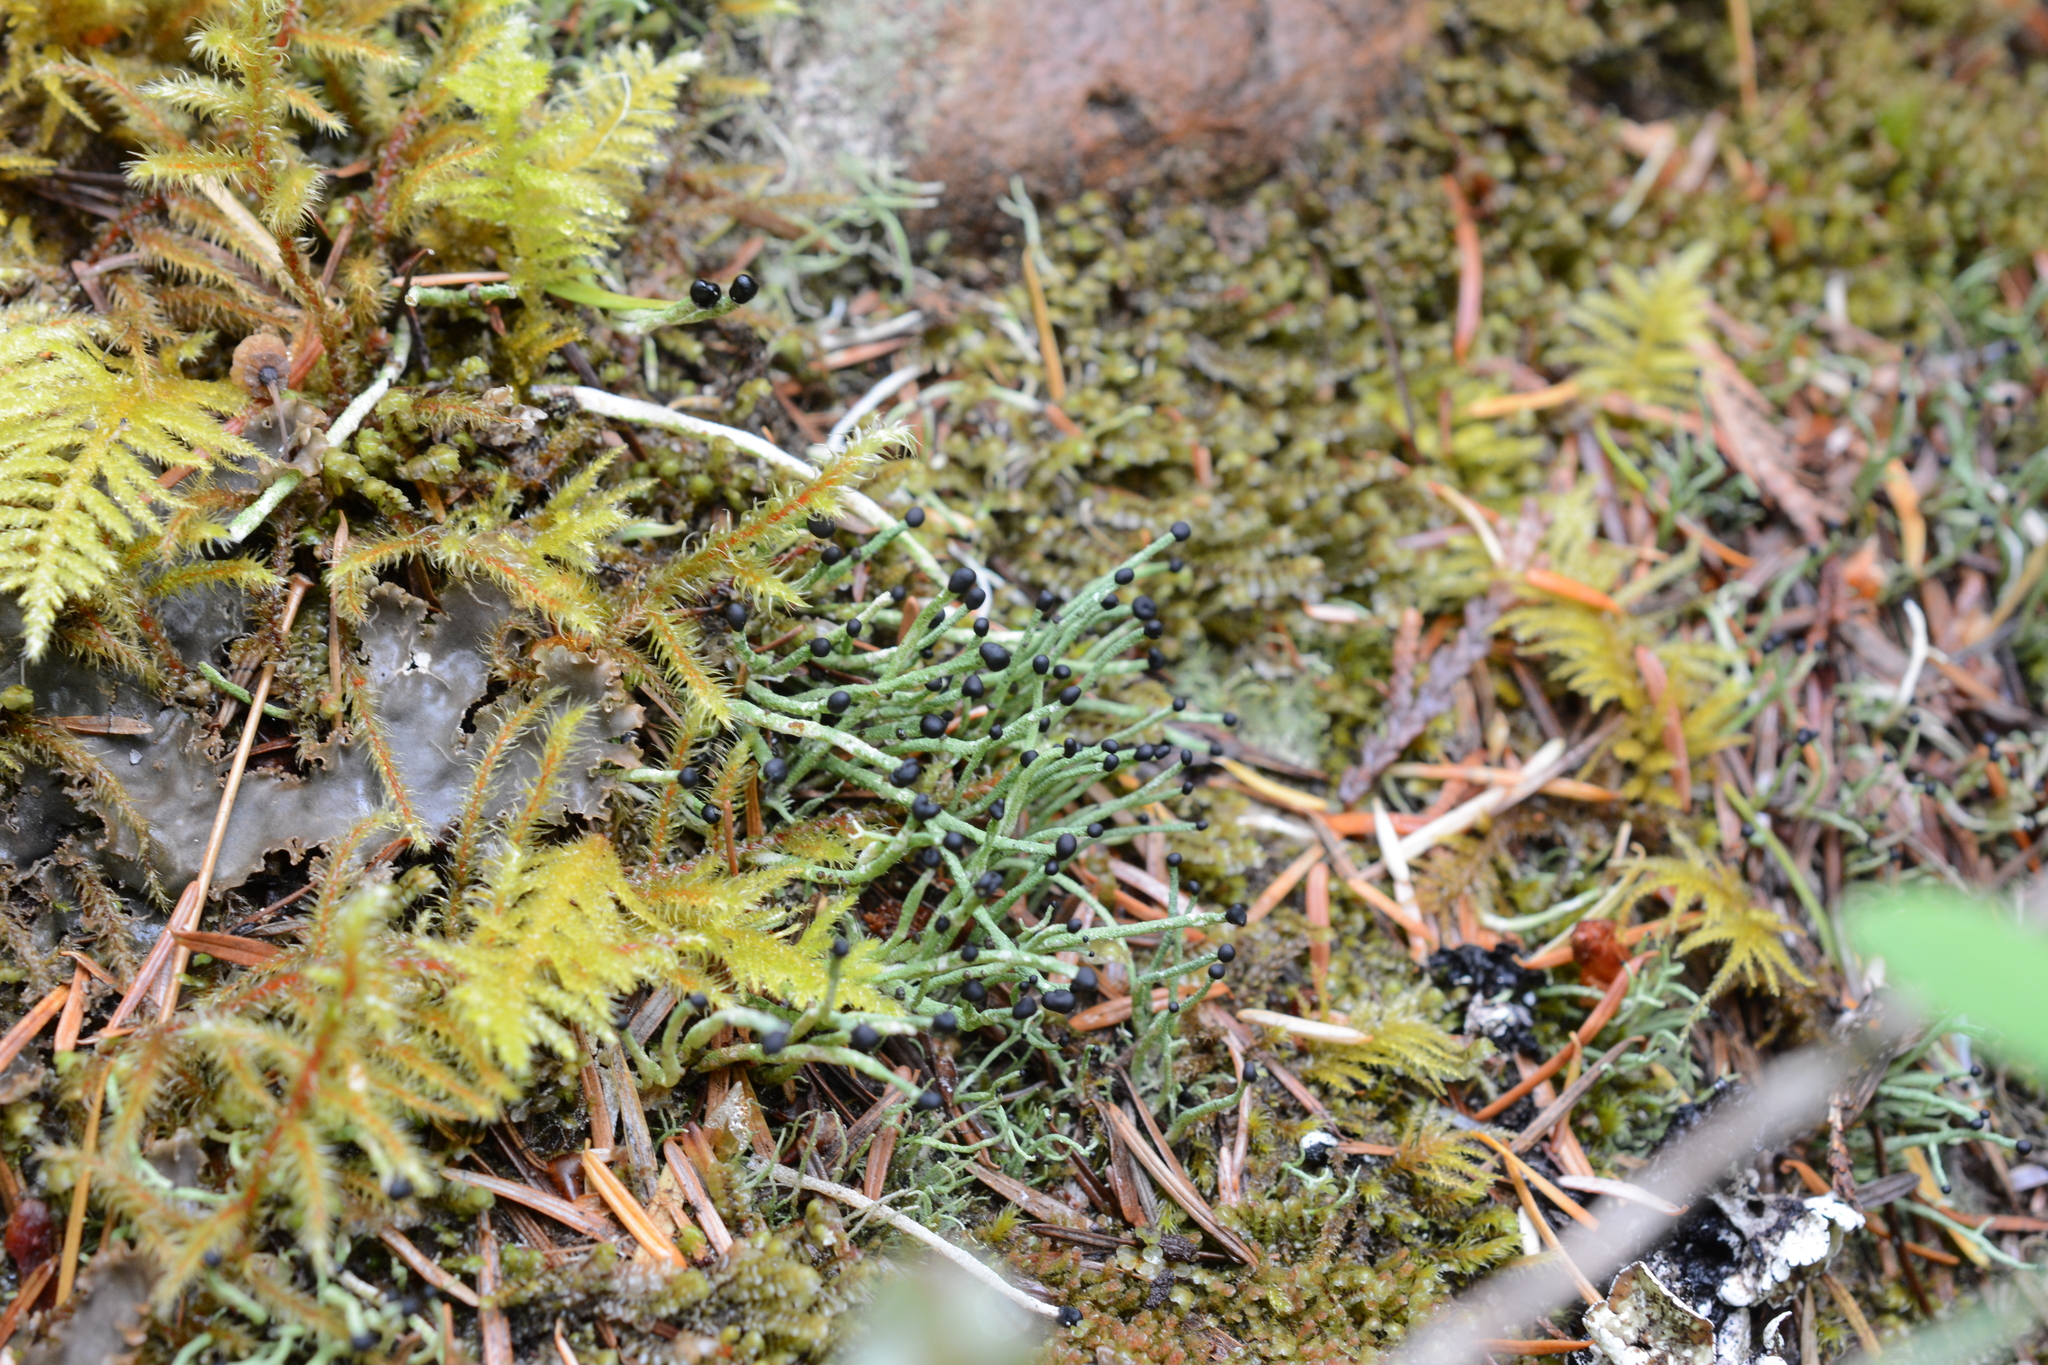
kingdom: Fungi
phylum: Ascomycota
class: Lecanoromycetes
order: Lecanorales
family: Cladoniaceae
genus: Pilophorus
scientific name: Pilophorus acicularis
